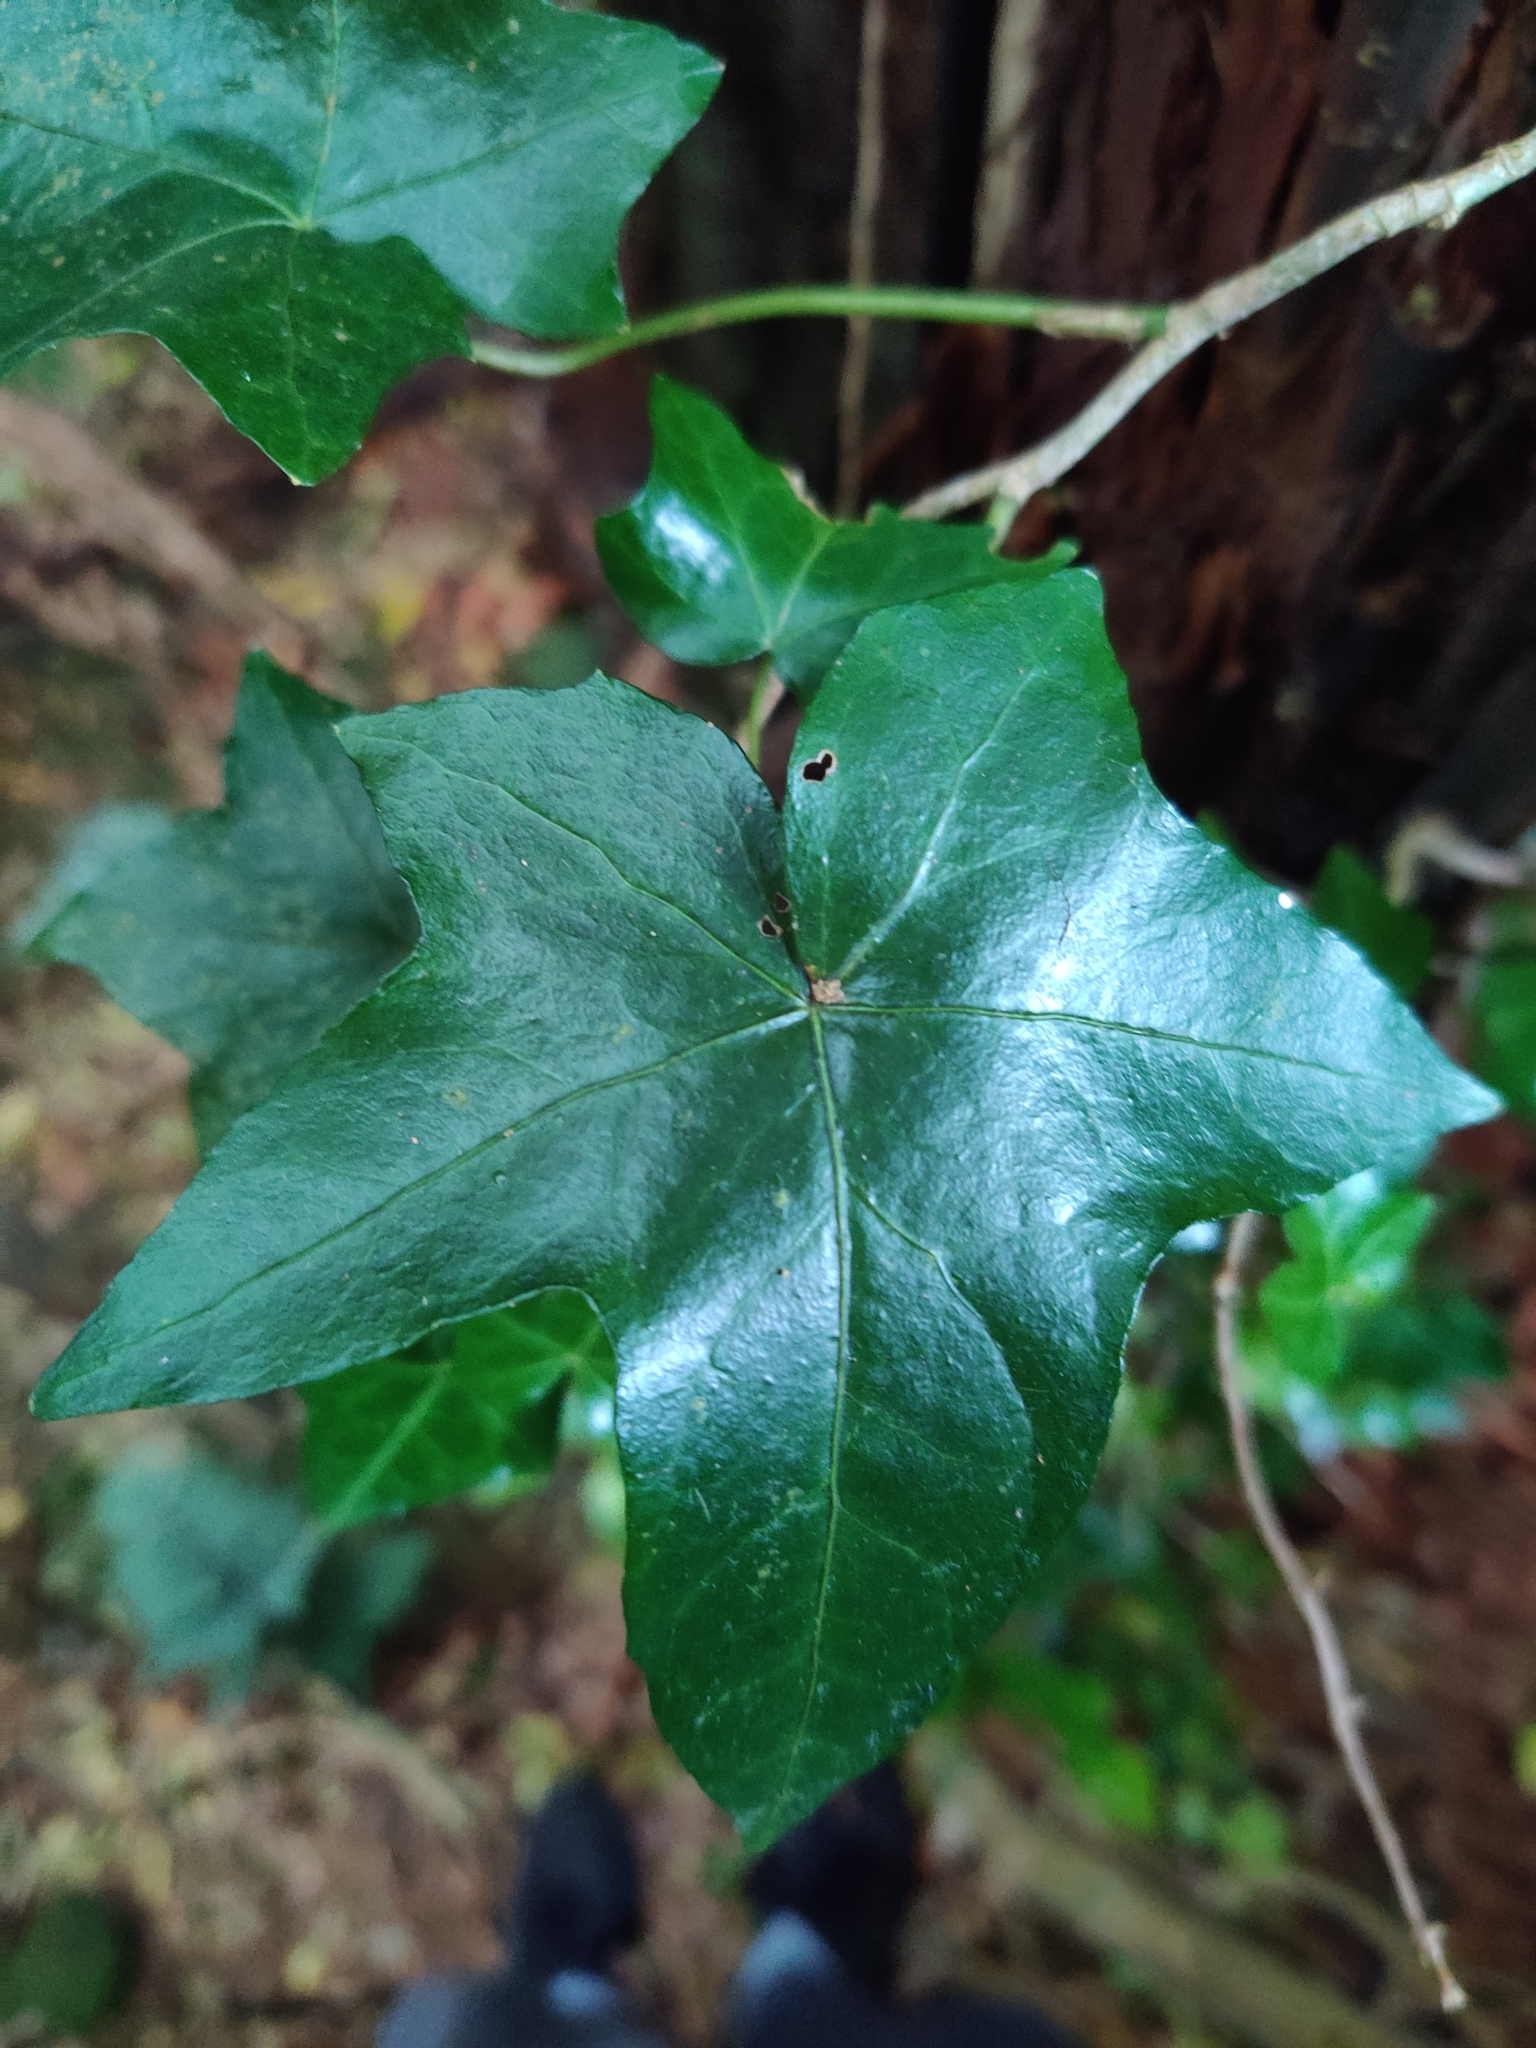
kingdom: Plantae
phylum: Tracheophyta
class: Magnoliopsida
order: Apiales
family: Araliaceae
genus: Hedera
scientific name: Hedera helix
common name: Ivy
